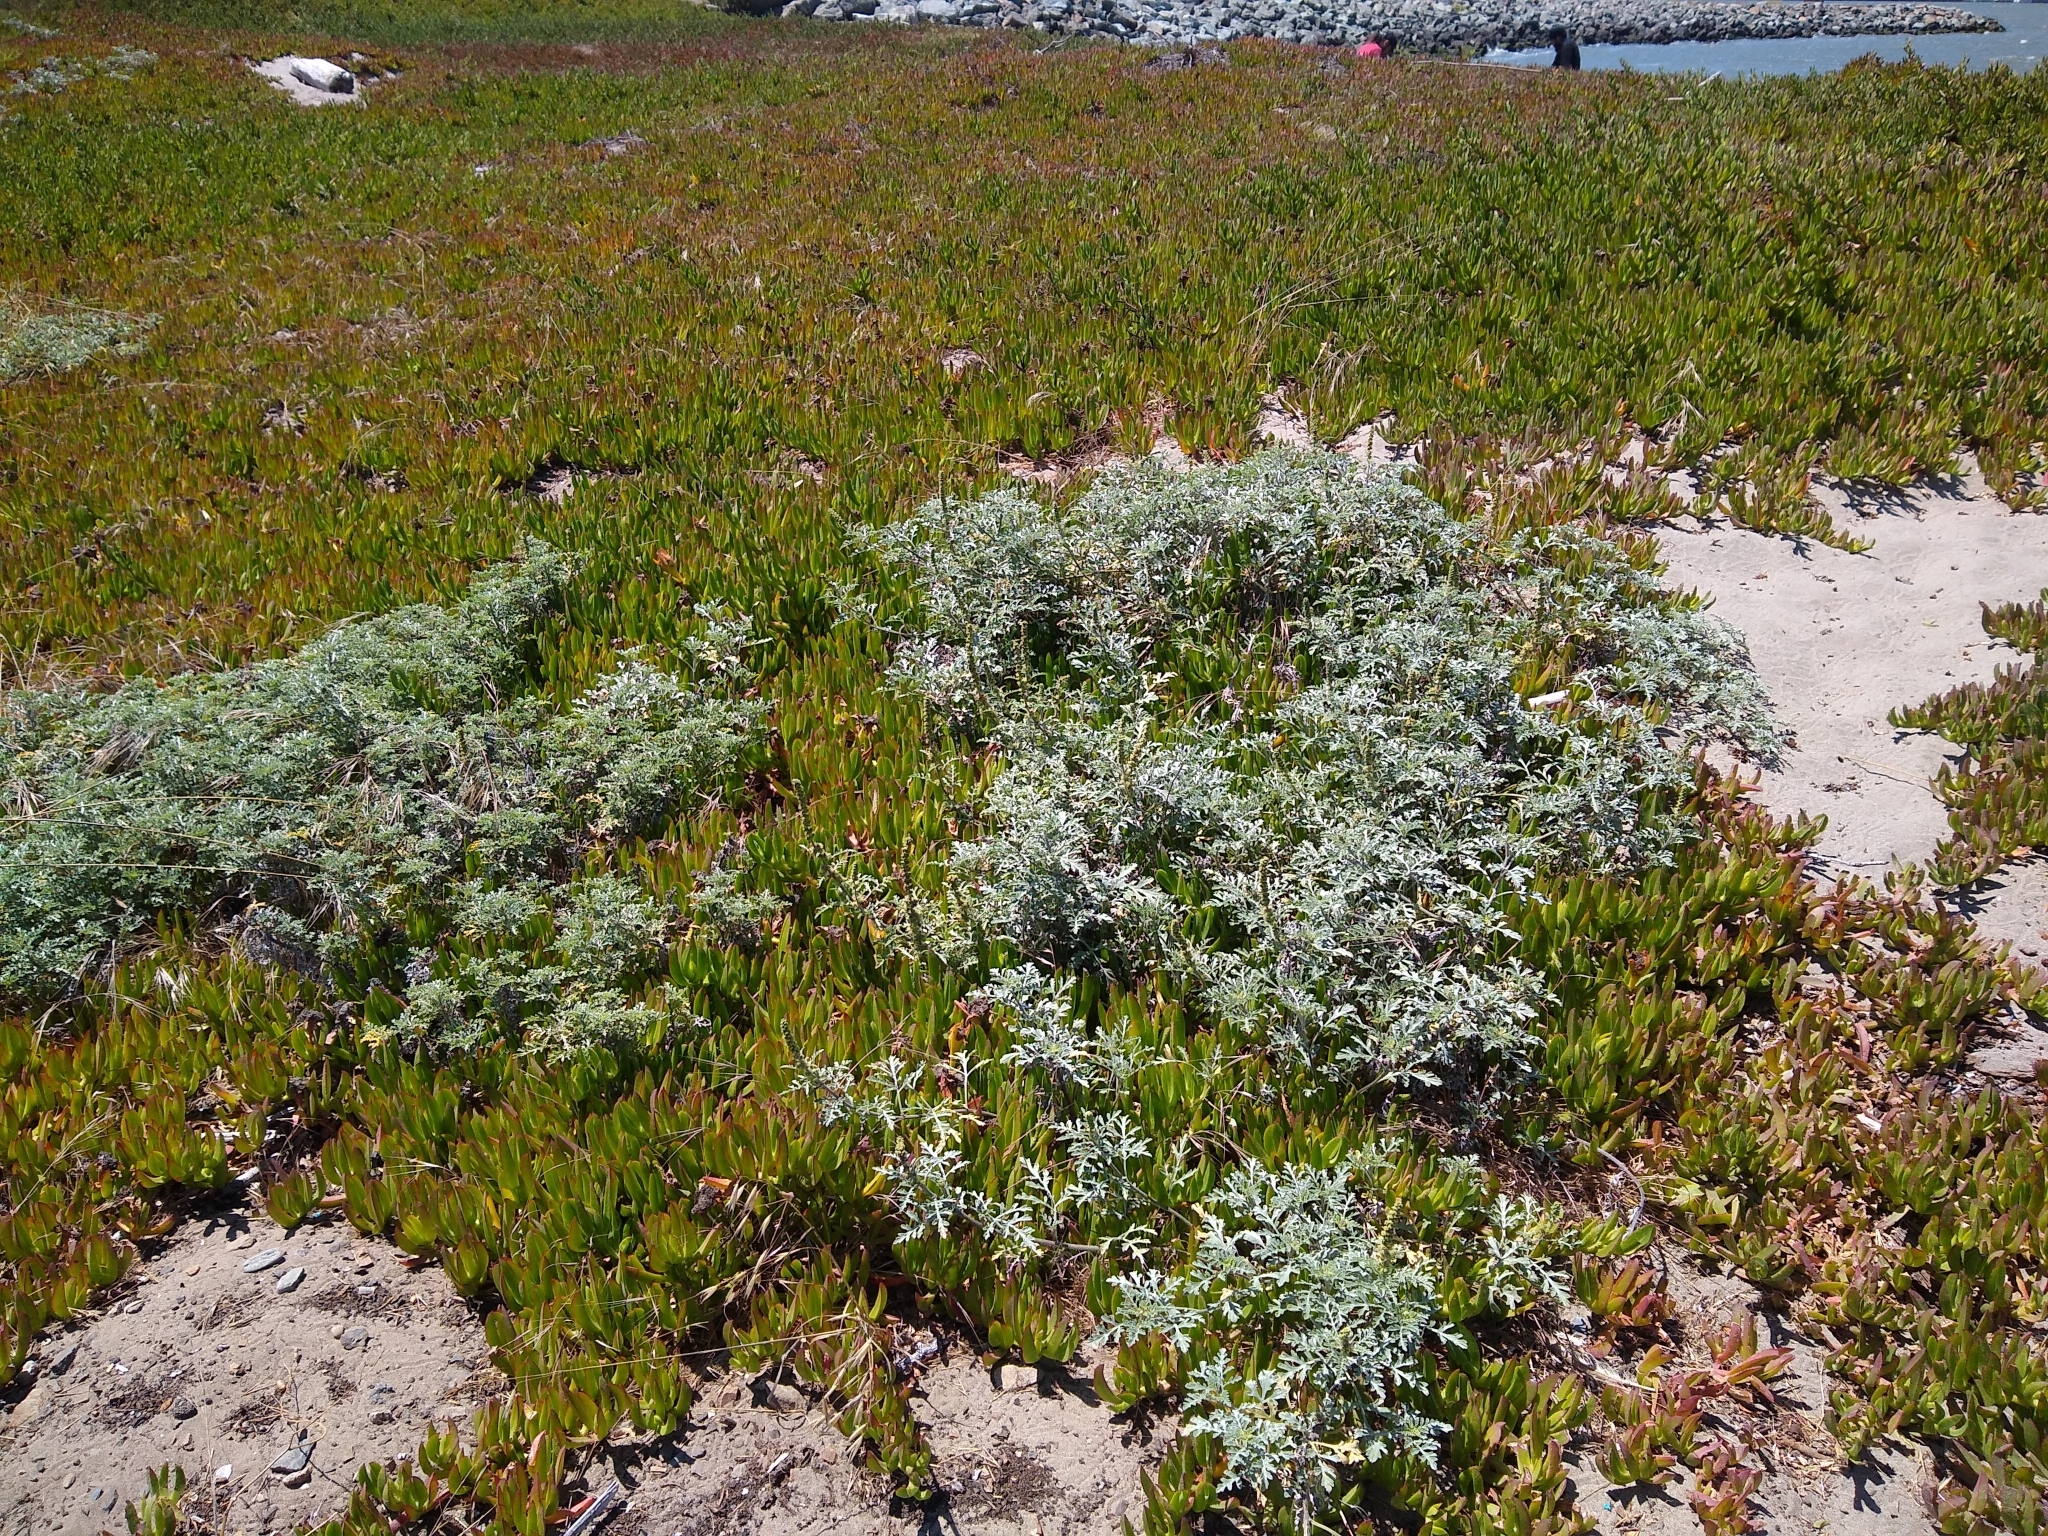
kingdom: Plantae
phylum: Tracheophyta
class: Magnoliopsida
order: Asterales
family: Asteraceae
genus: Ambrosia
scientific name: Ambrosia chamissonis
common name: Beachbur
